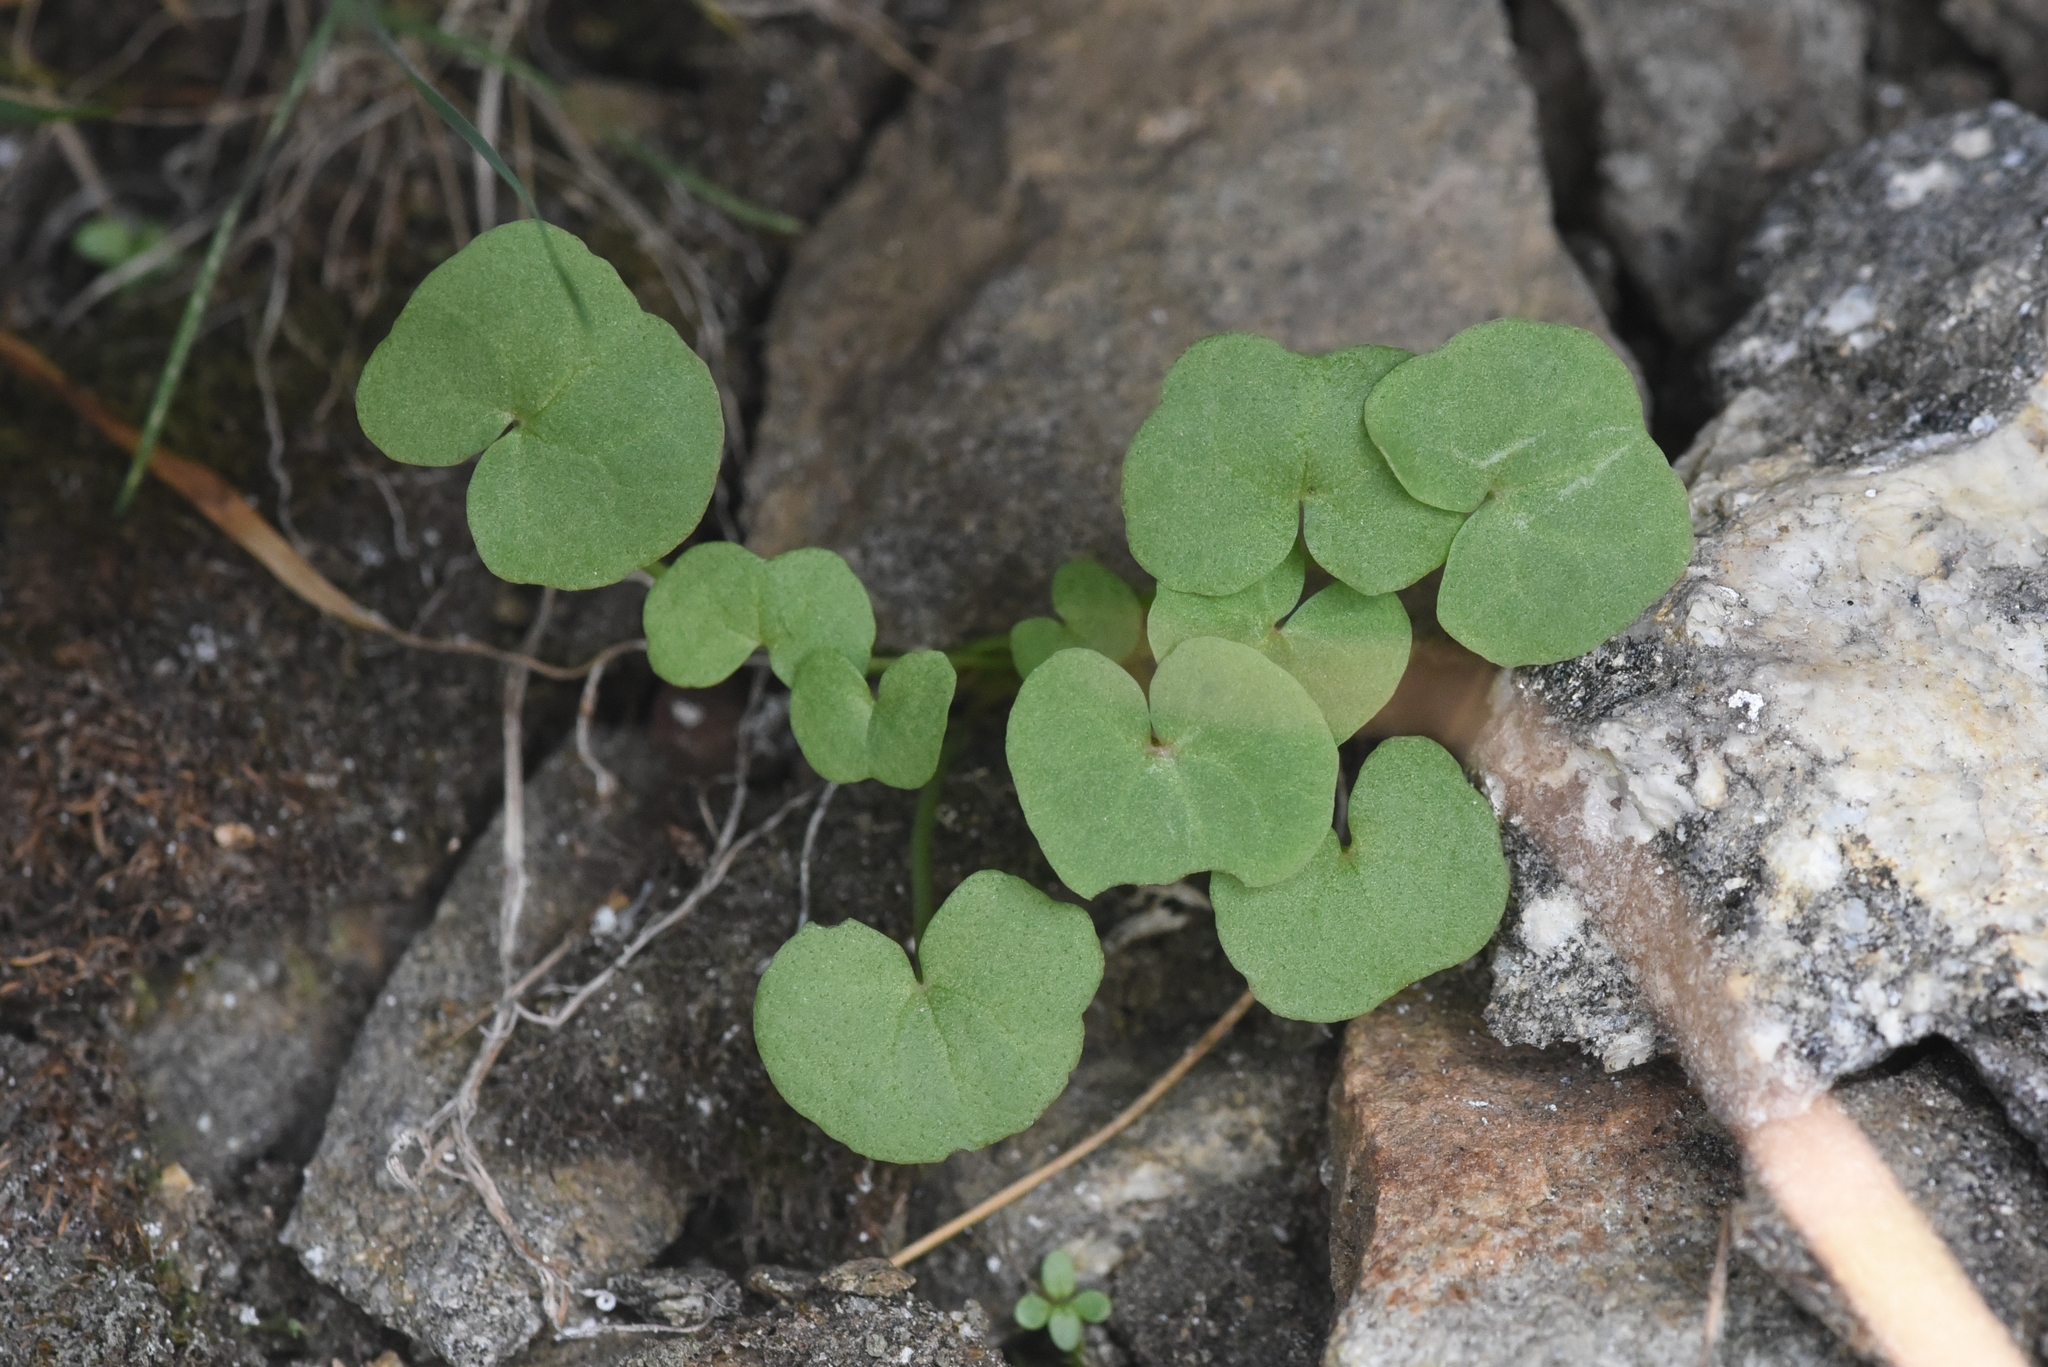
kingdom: Plantae
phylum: Tracheophyta
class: Magnoliopsida
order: Caryophyllales
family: Polygonaceae
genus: Oxyria
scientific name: Oxyria digyna
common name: Alpine mountain-sorrel
